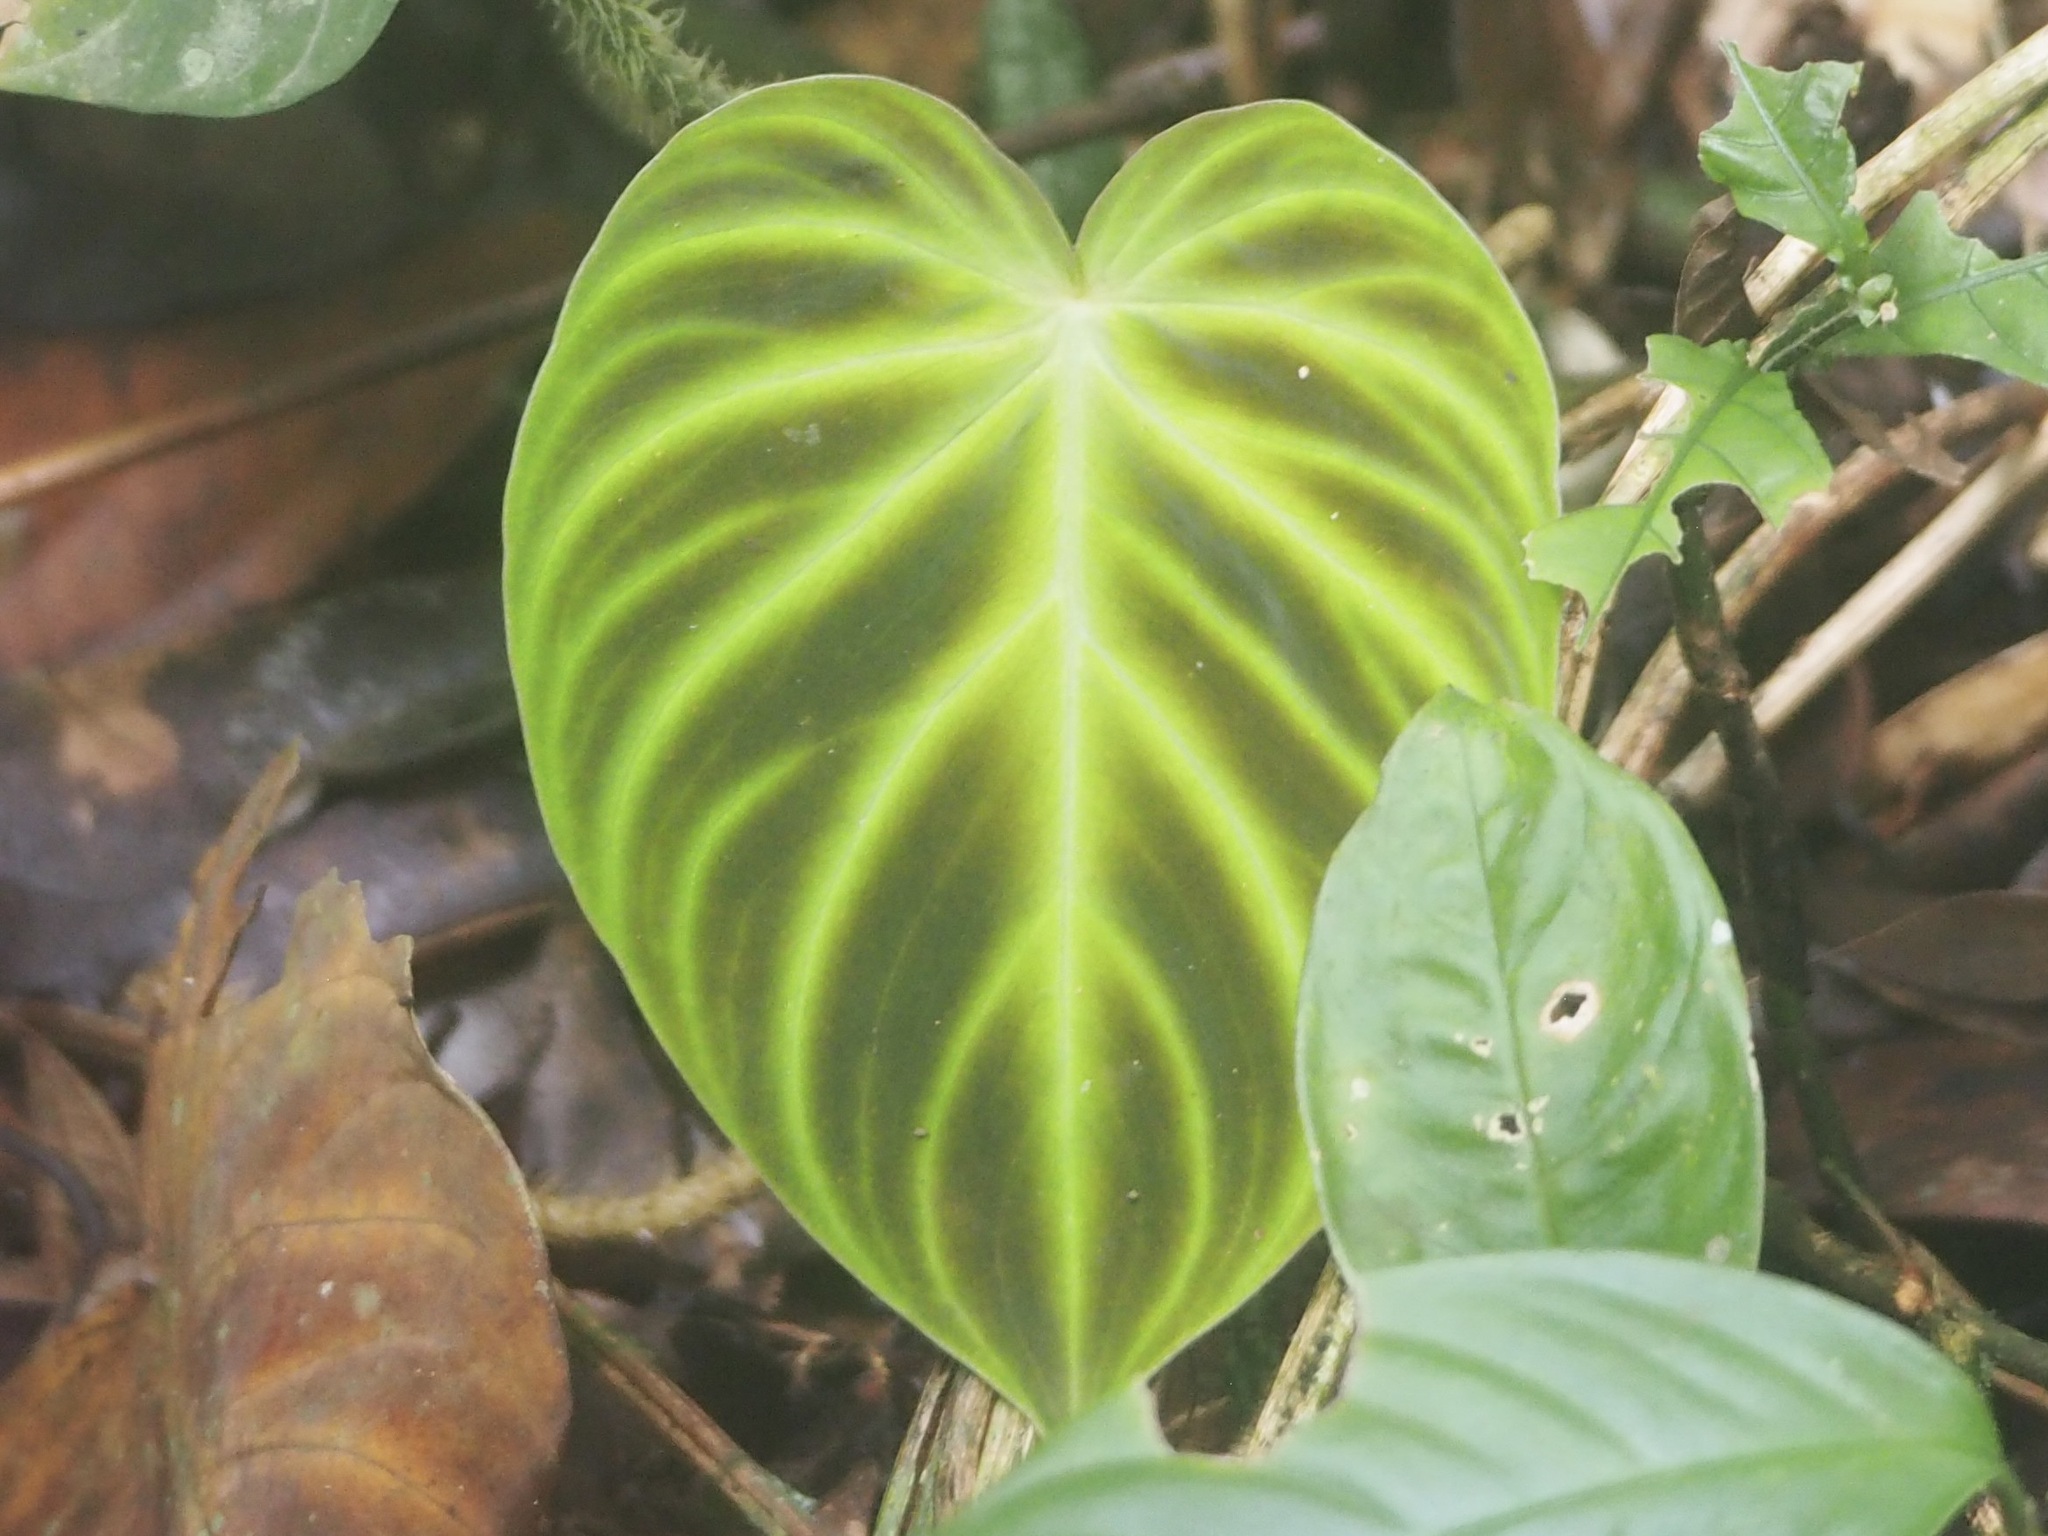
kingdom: Plantae
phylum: Tracheophyta
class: Liliopsida
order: Alismatales
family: Araceae
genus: Philodendron
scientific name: Philodendron verrucosum
